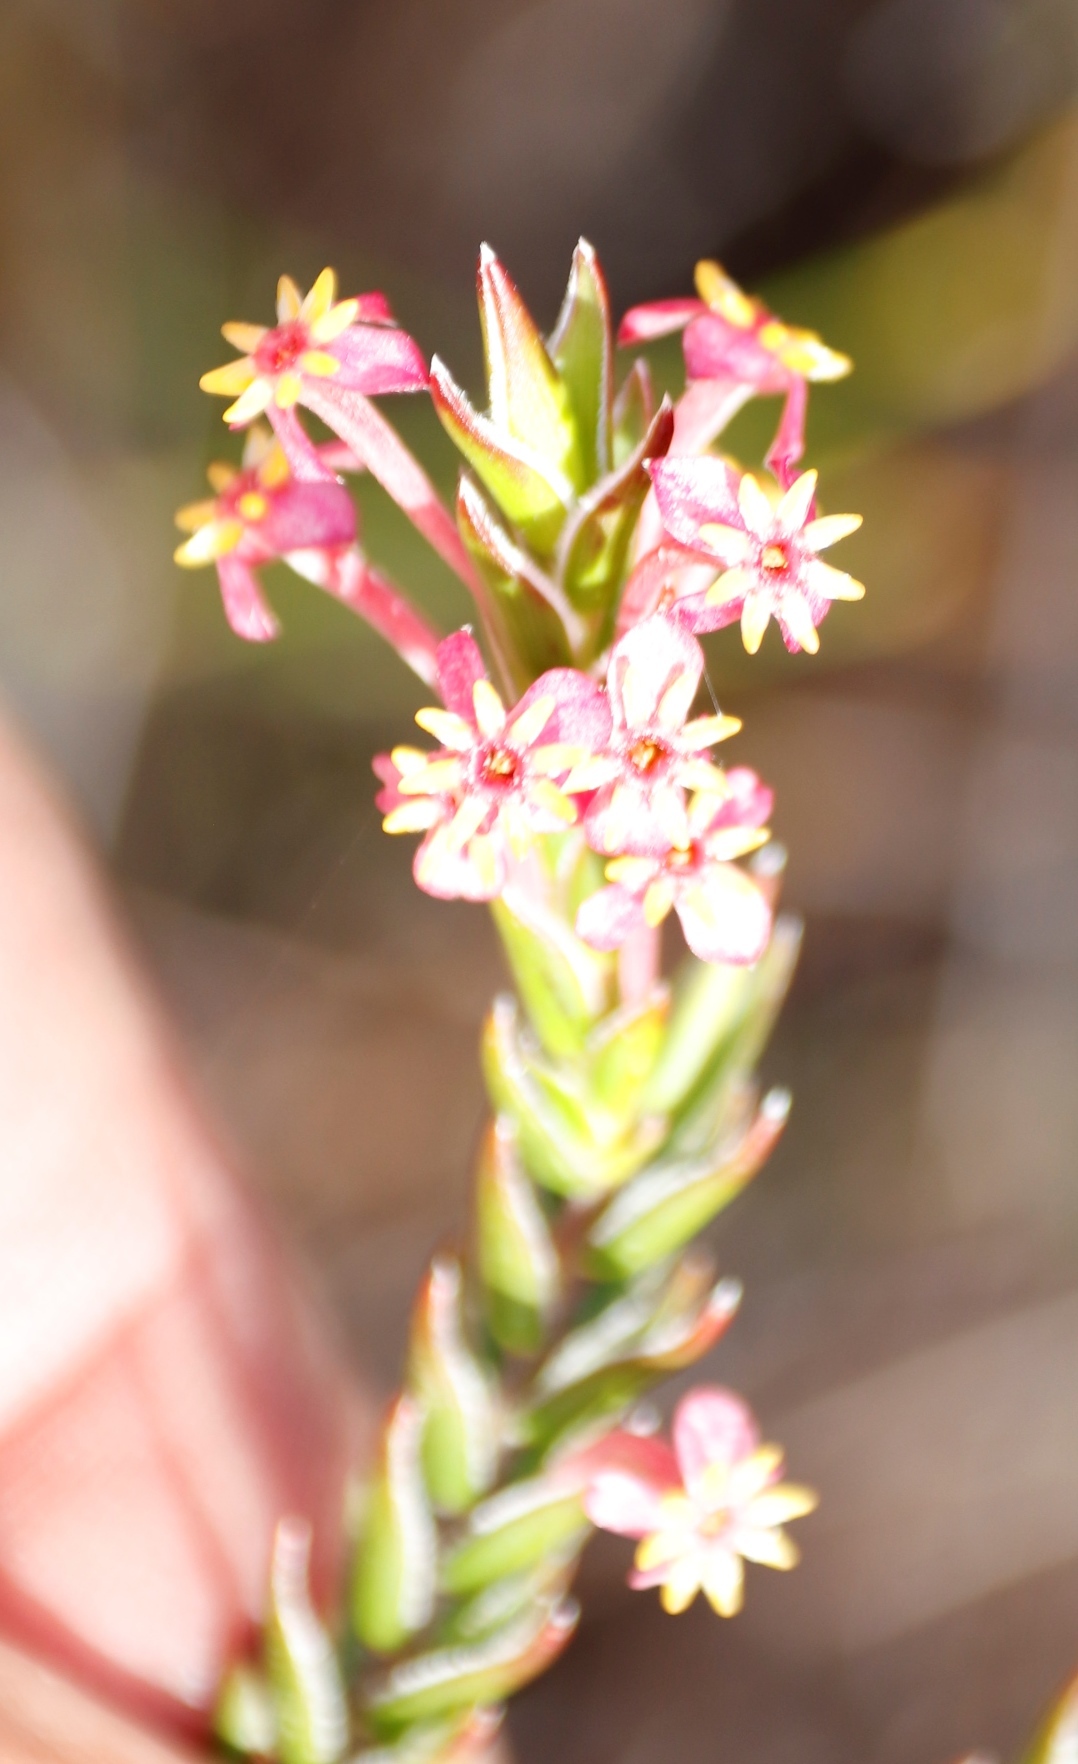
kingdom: Plantae
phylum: Tracheophyta
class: Magnoliopsida
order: Malvales
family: Thymelaeaceae
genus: Struthiola
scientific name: Struthiola ciliata
